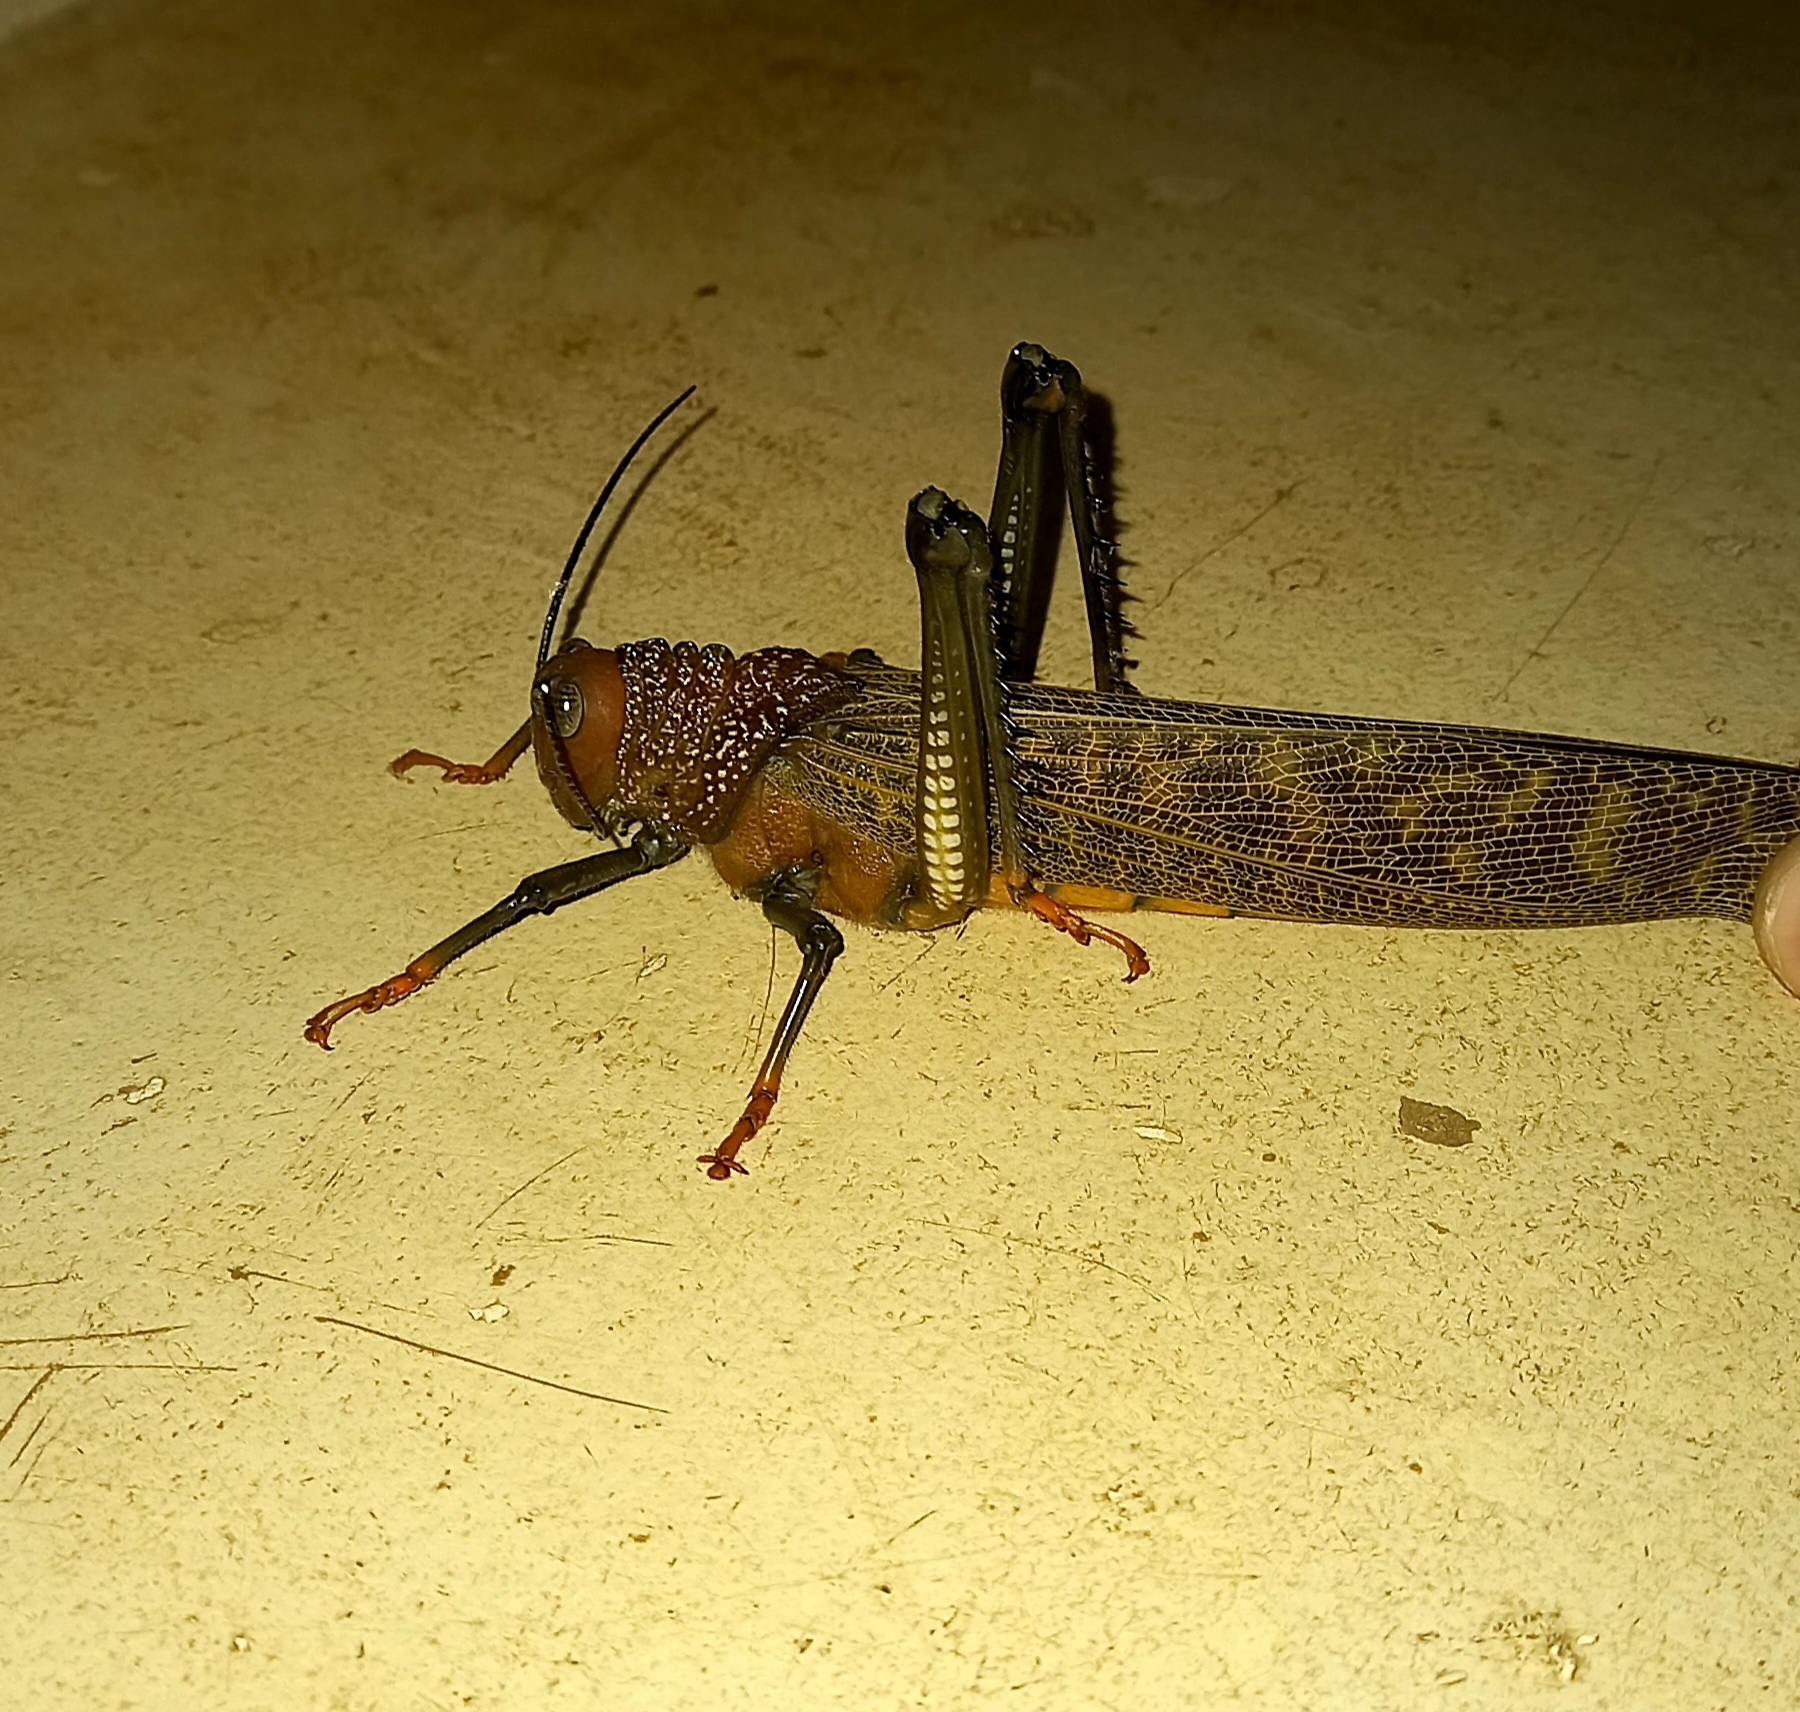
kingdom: Animalia
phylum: Arthropoda
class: Insecta
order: Orthoptera
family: Romaleidae
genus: Tropidacris
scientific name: Tropidacris cristata
